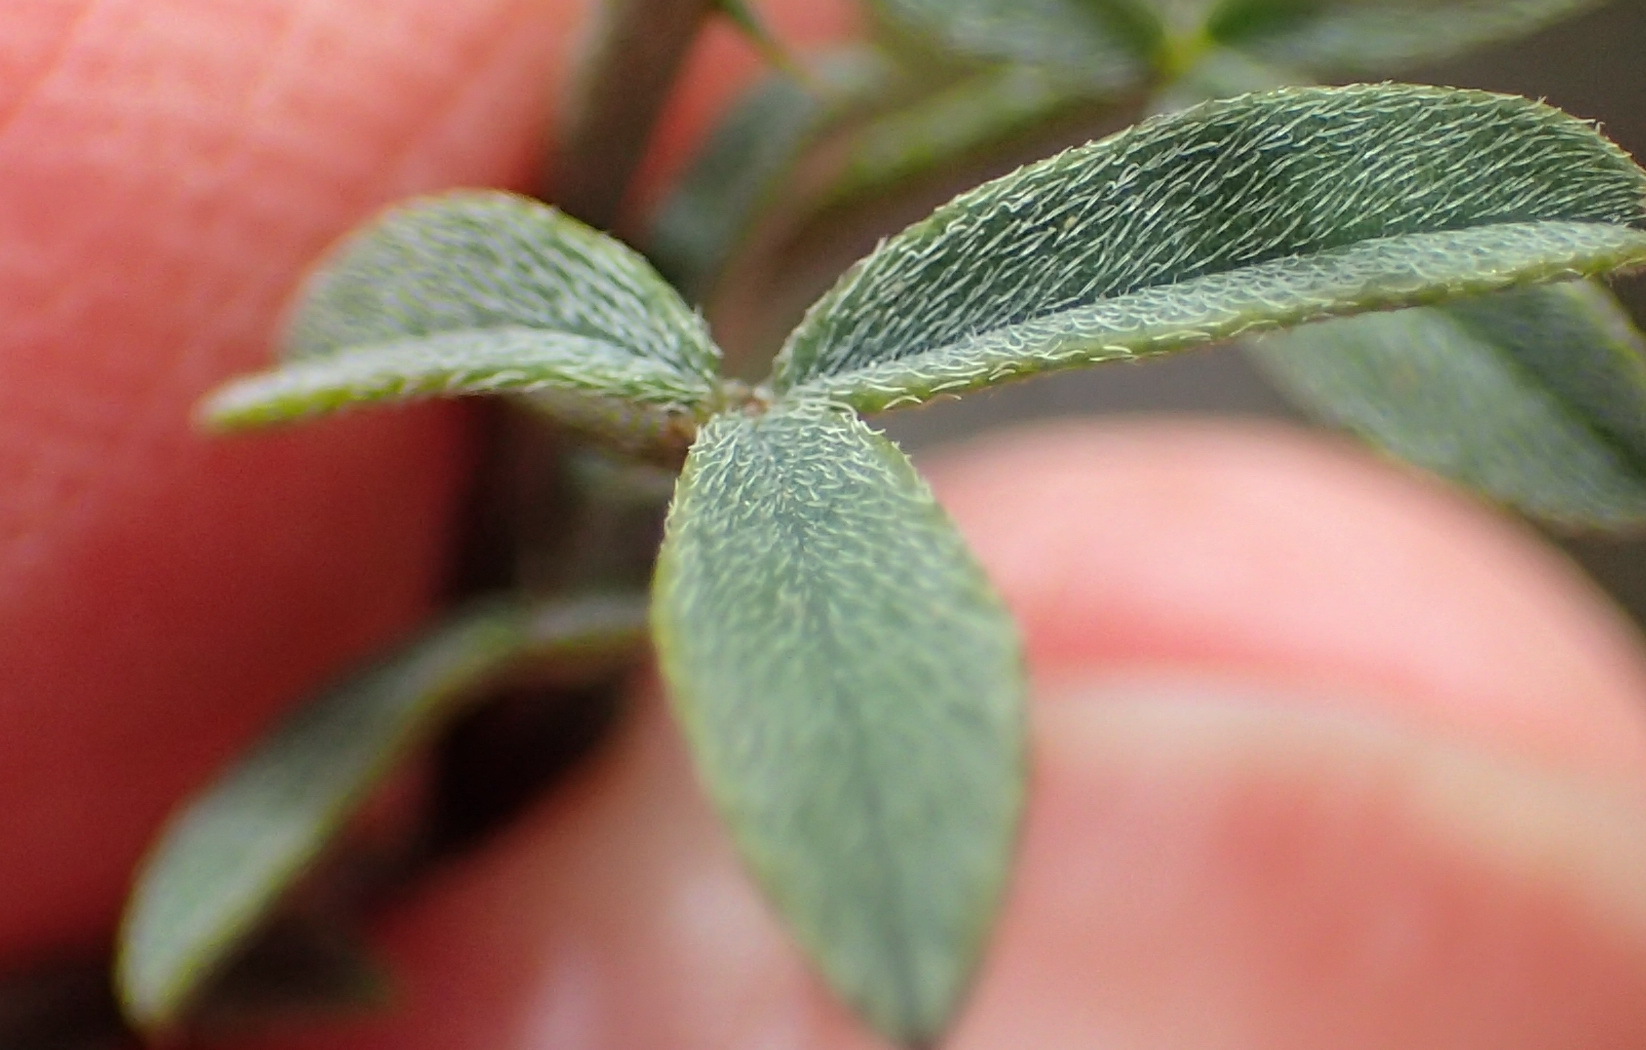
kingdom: Plantae
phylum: Tracheophyta
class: Magnoliopsida
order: Fabales
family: Fabaceae
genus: Indigofera
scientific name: Indigofera heterophylla
